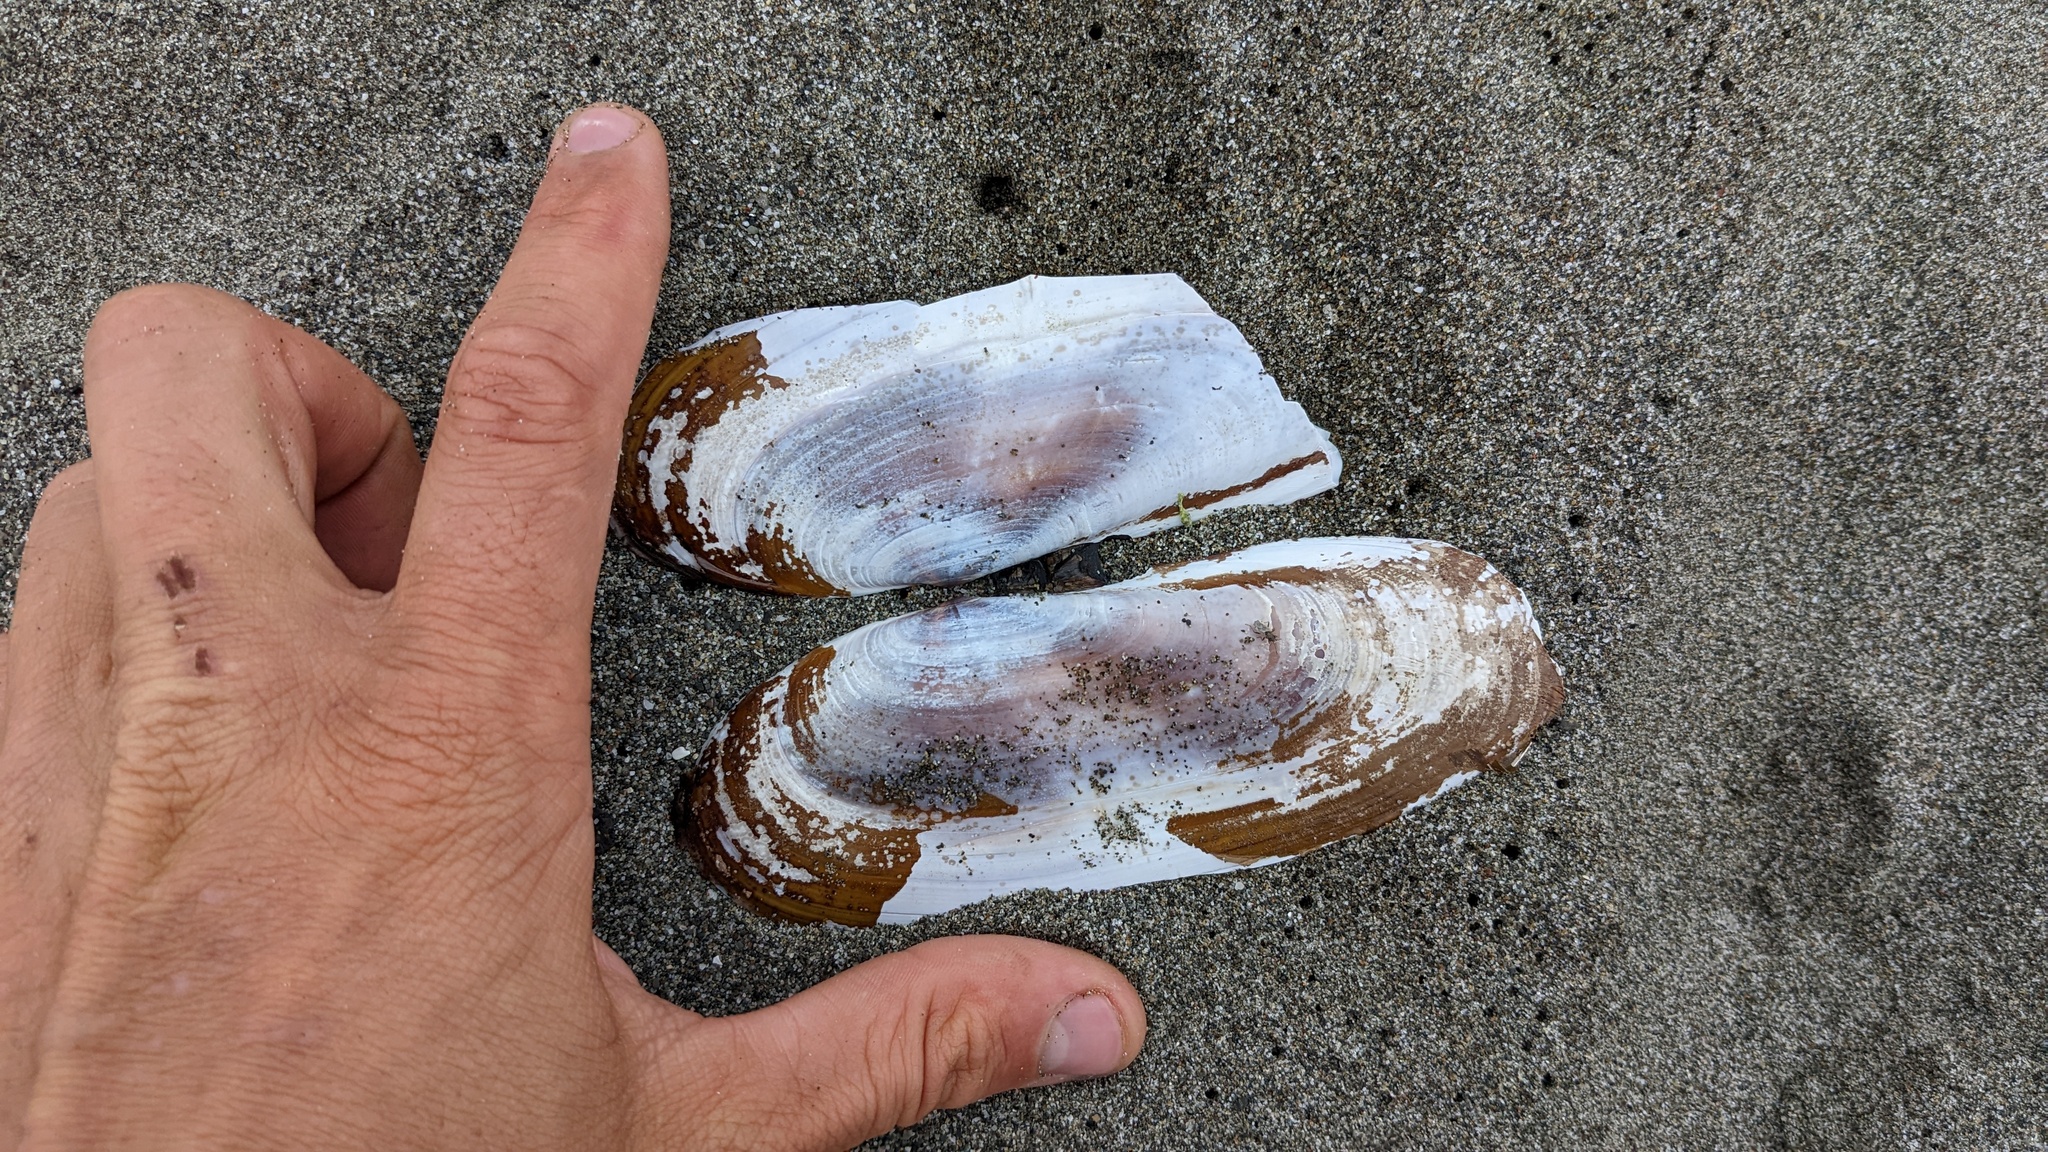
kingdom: Animalia
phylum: Mollusca
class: Bivalvia
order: Adapedonta
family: Pharidae
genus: Siliqua
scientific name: Siliqua patula
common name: Pacific razor clam
